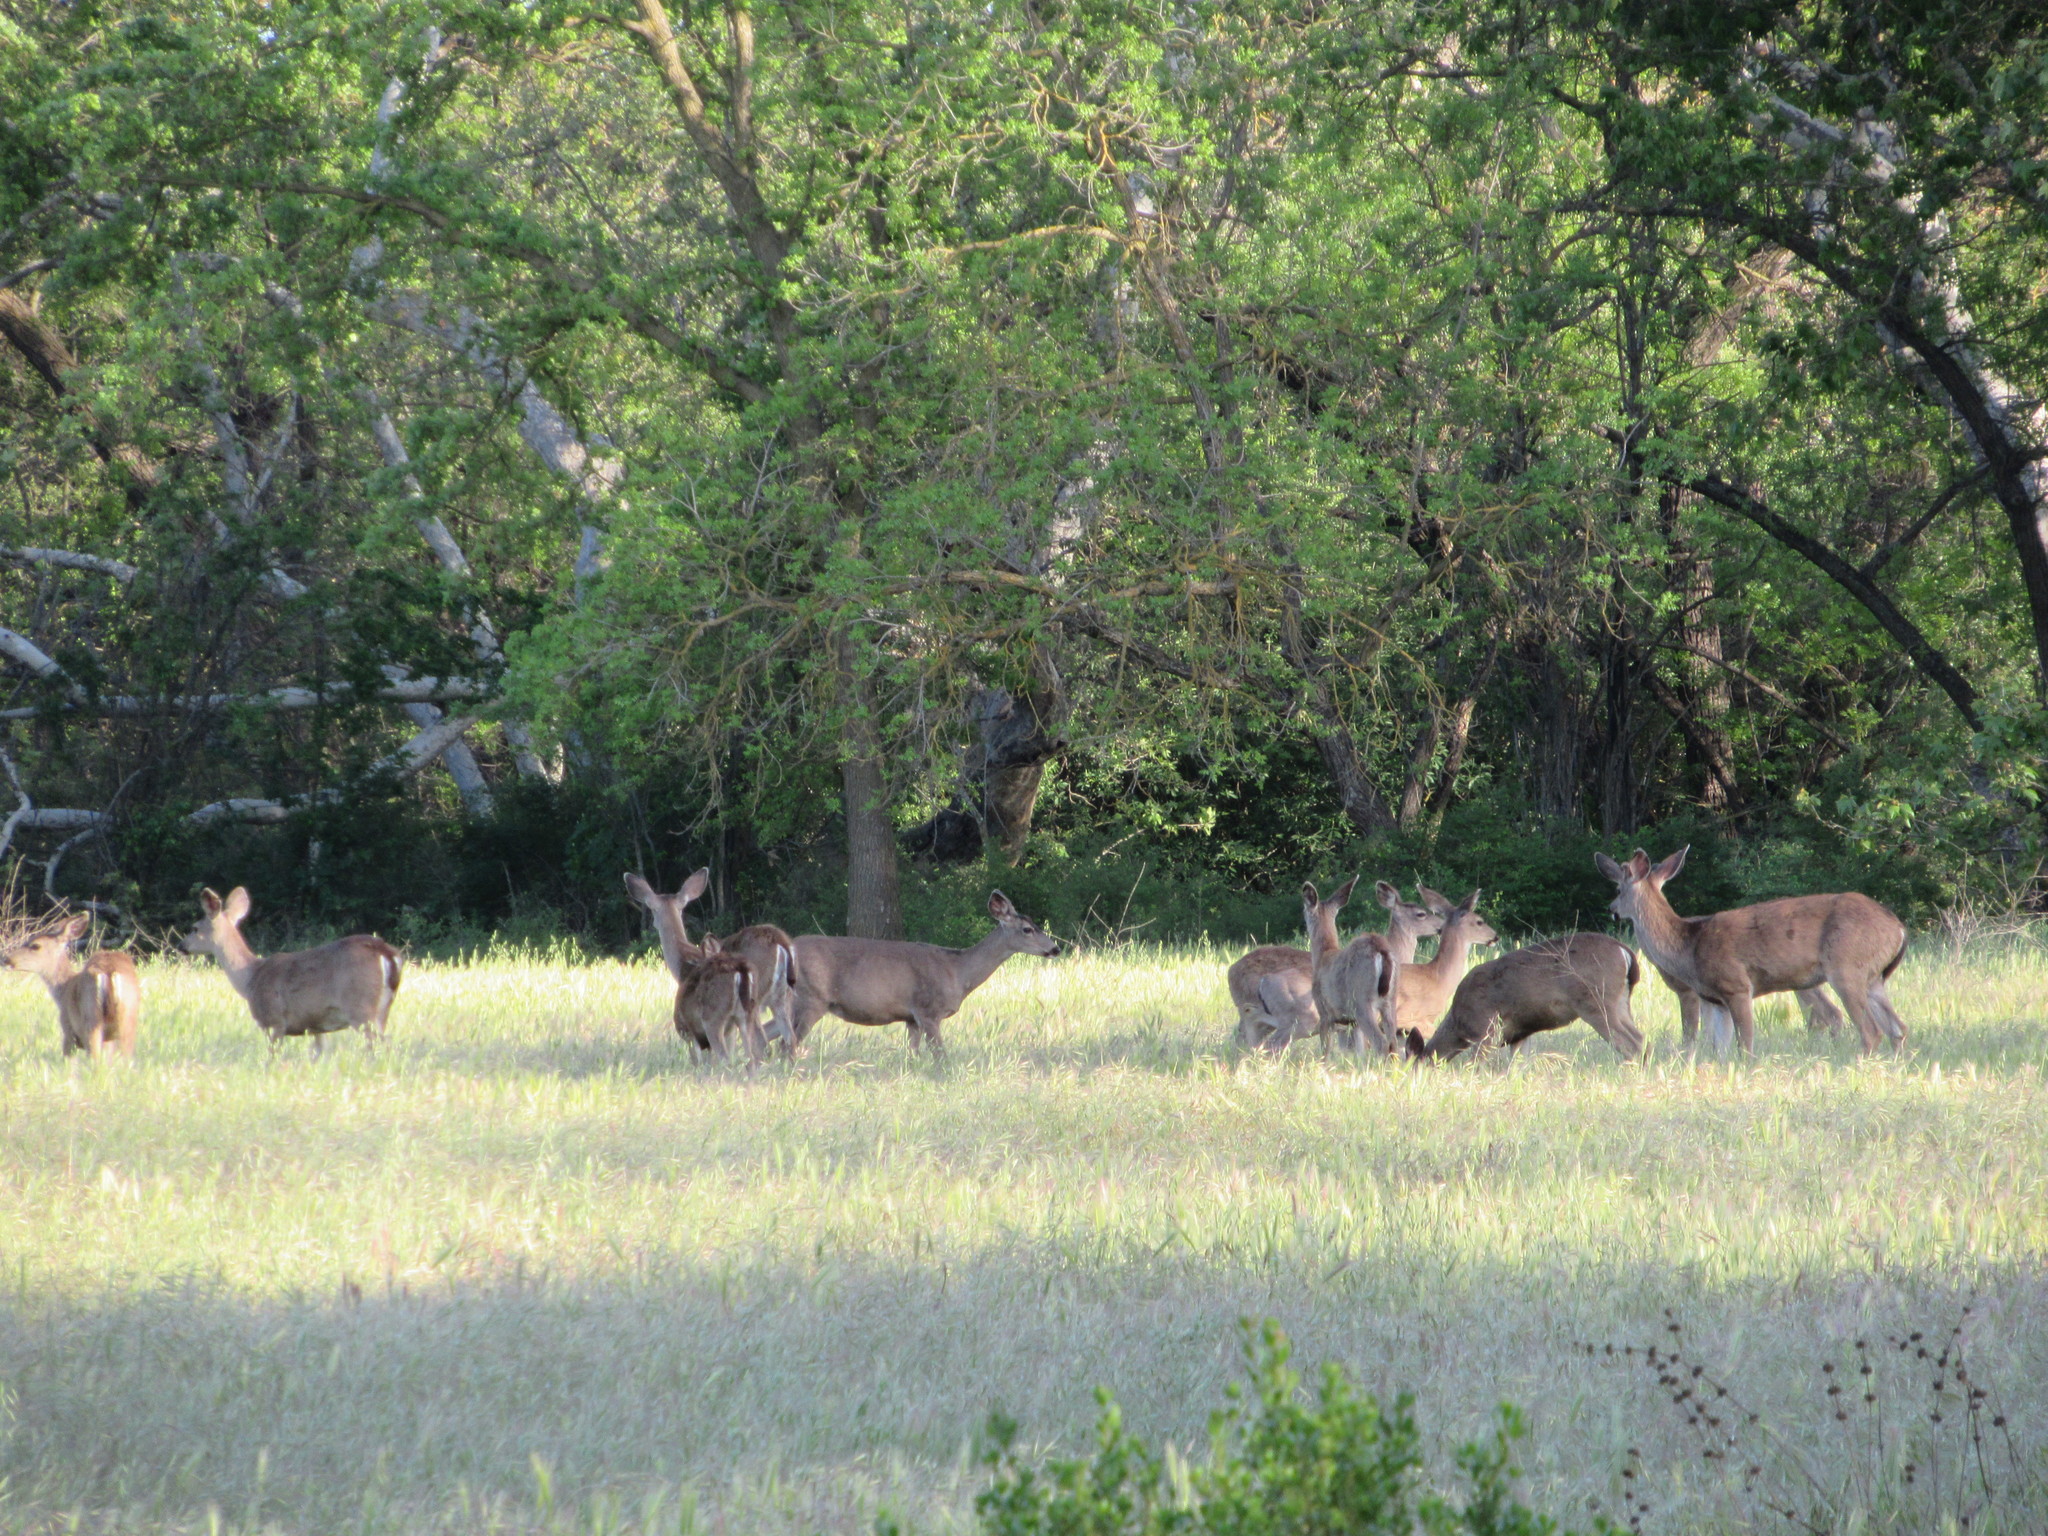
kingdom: Animalia
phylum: Chordata
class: Mammalia
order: Artiodactyla
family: Cervidae
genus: Odocoileus
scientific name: Odocoileus hemionus
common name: Mule deer
